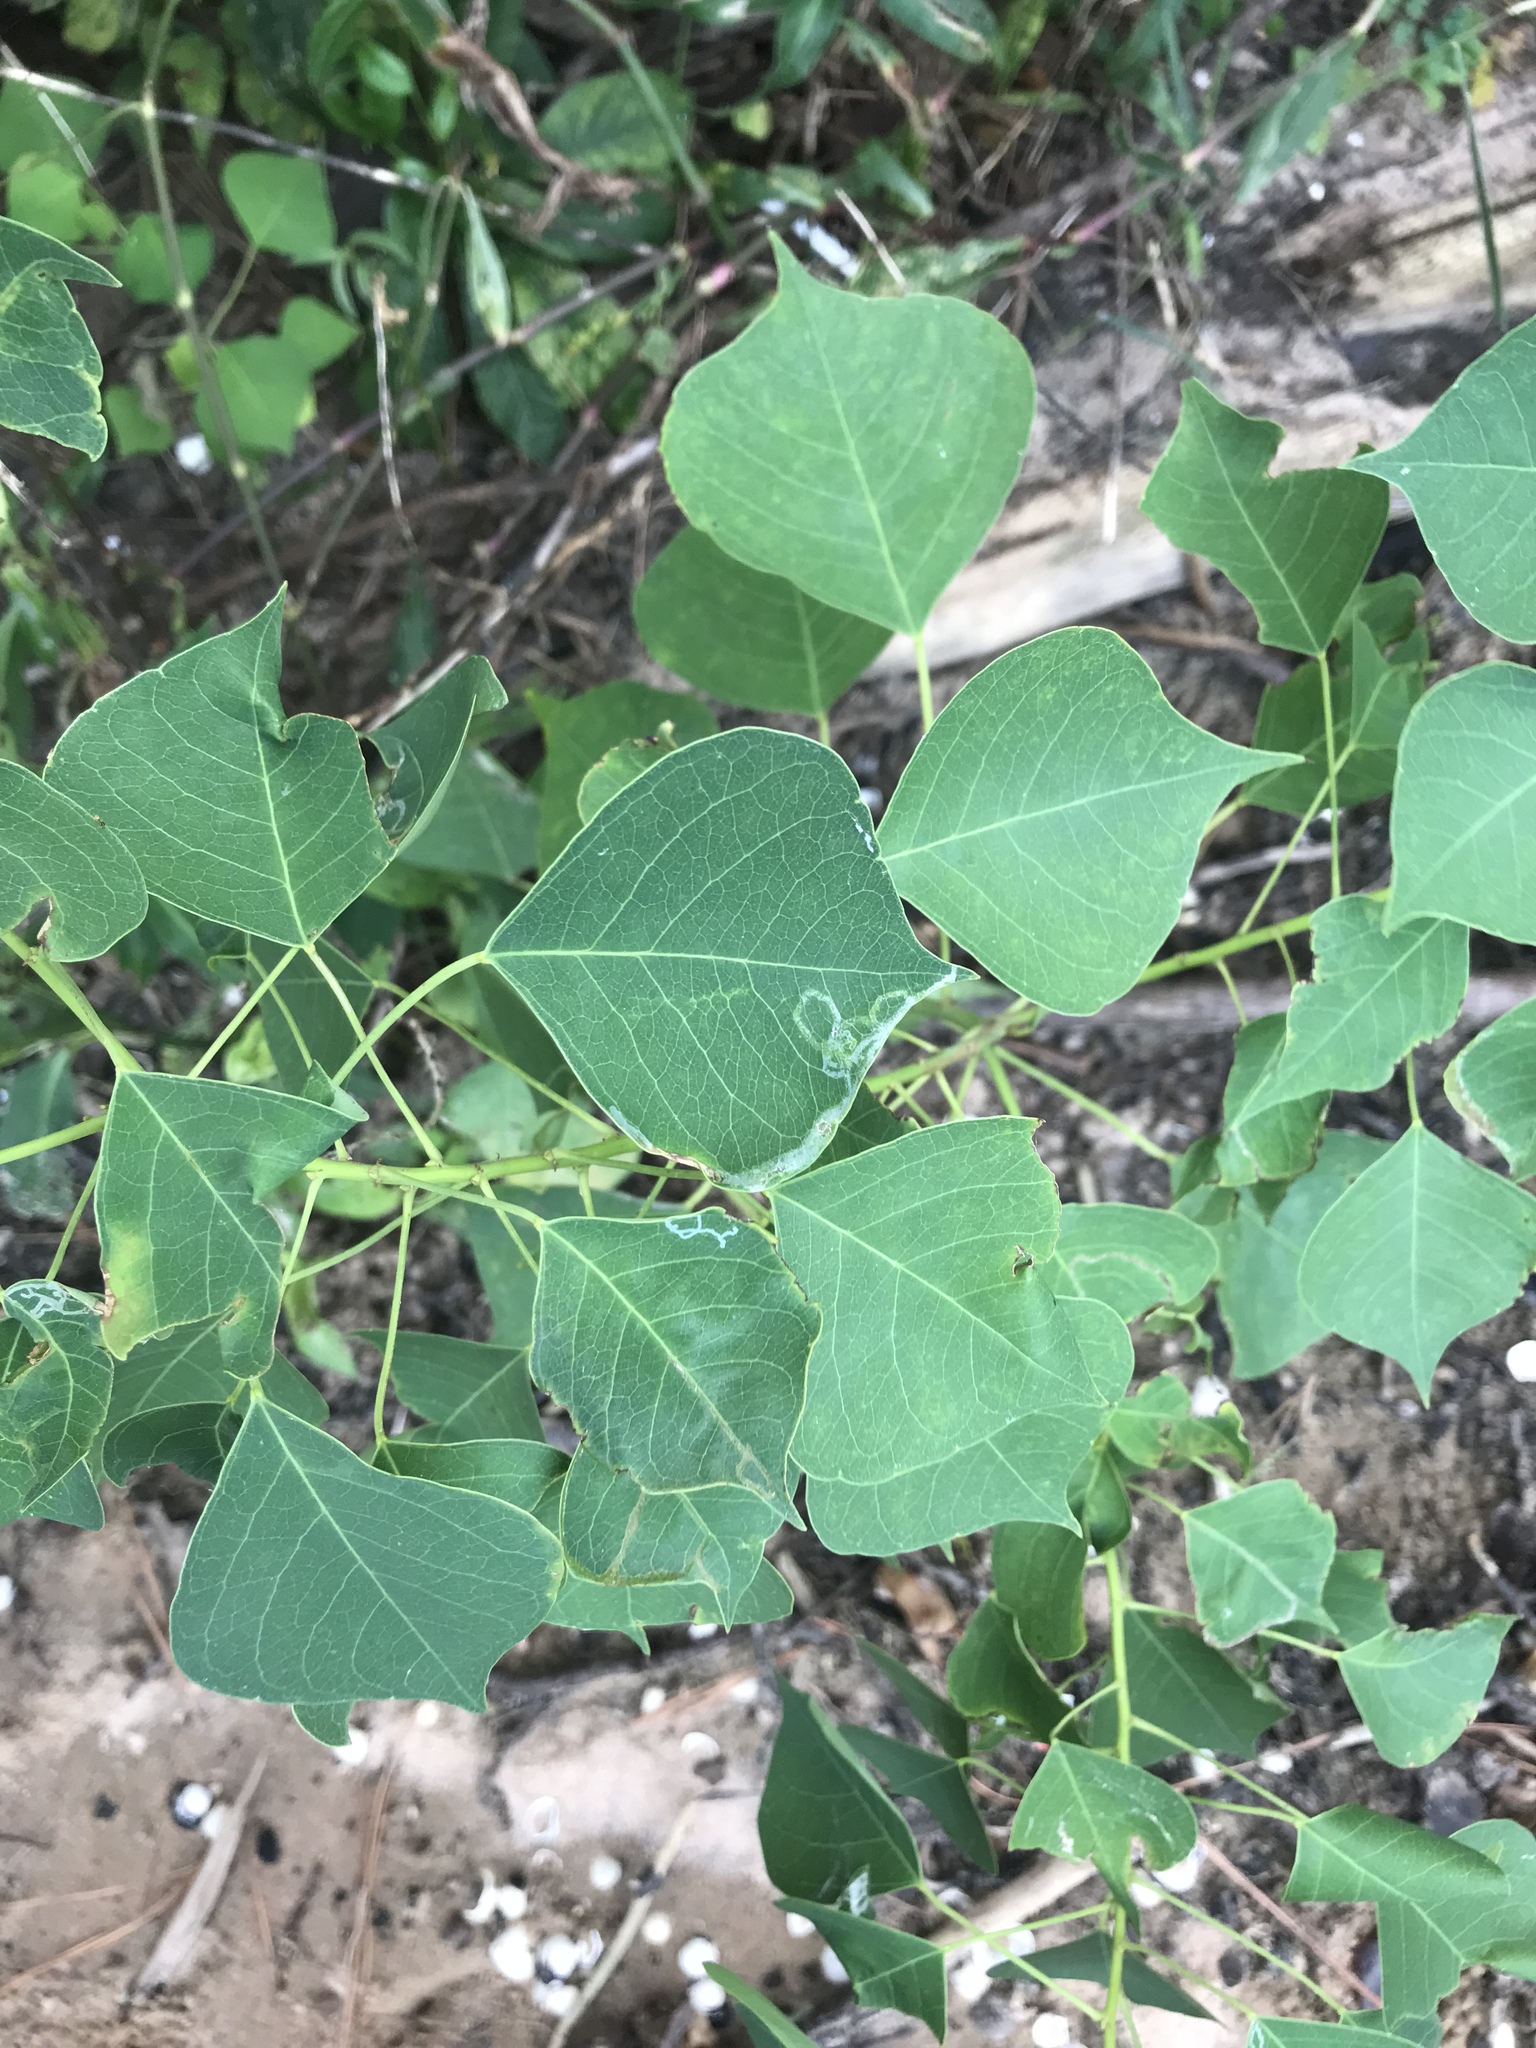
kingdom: Plantae
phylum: Tracheophyta
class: Magnoliopsida
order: Malpighiales
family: Euphorbiaceae
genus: Triadica
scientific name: Triadica sebifera
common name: Chinese tallow
